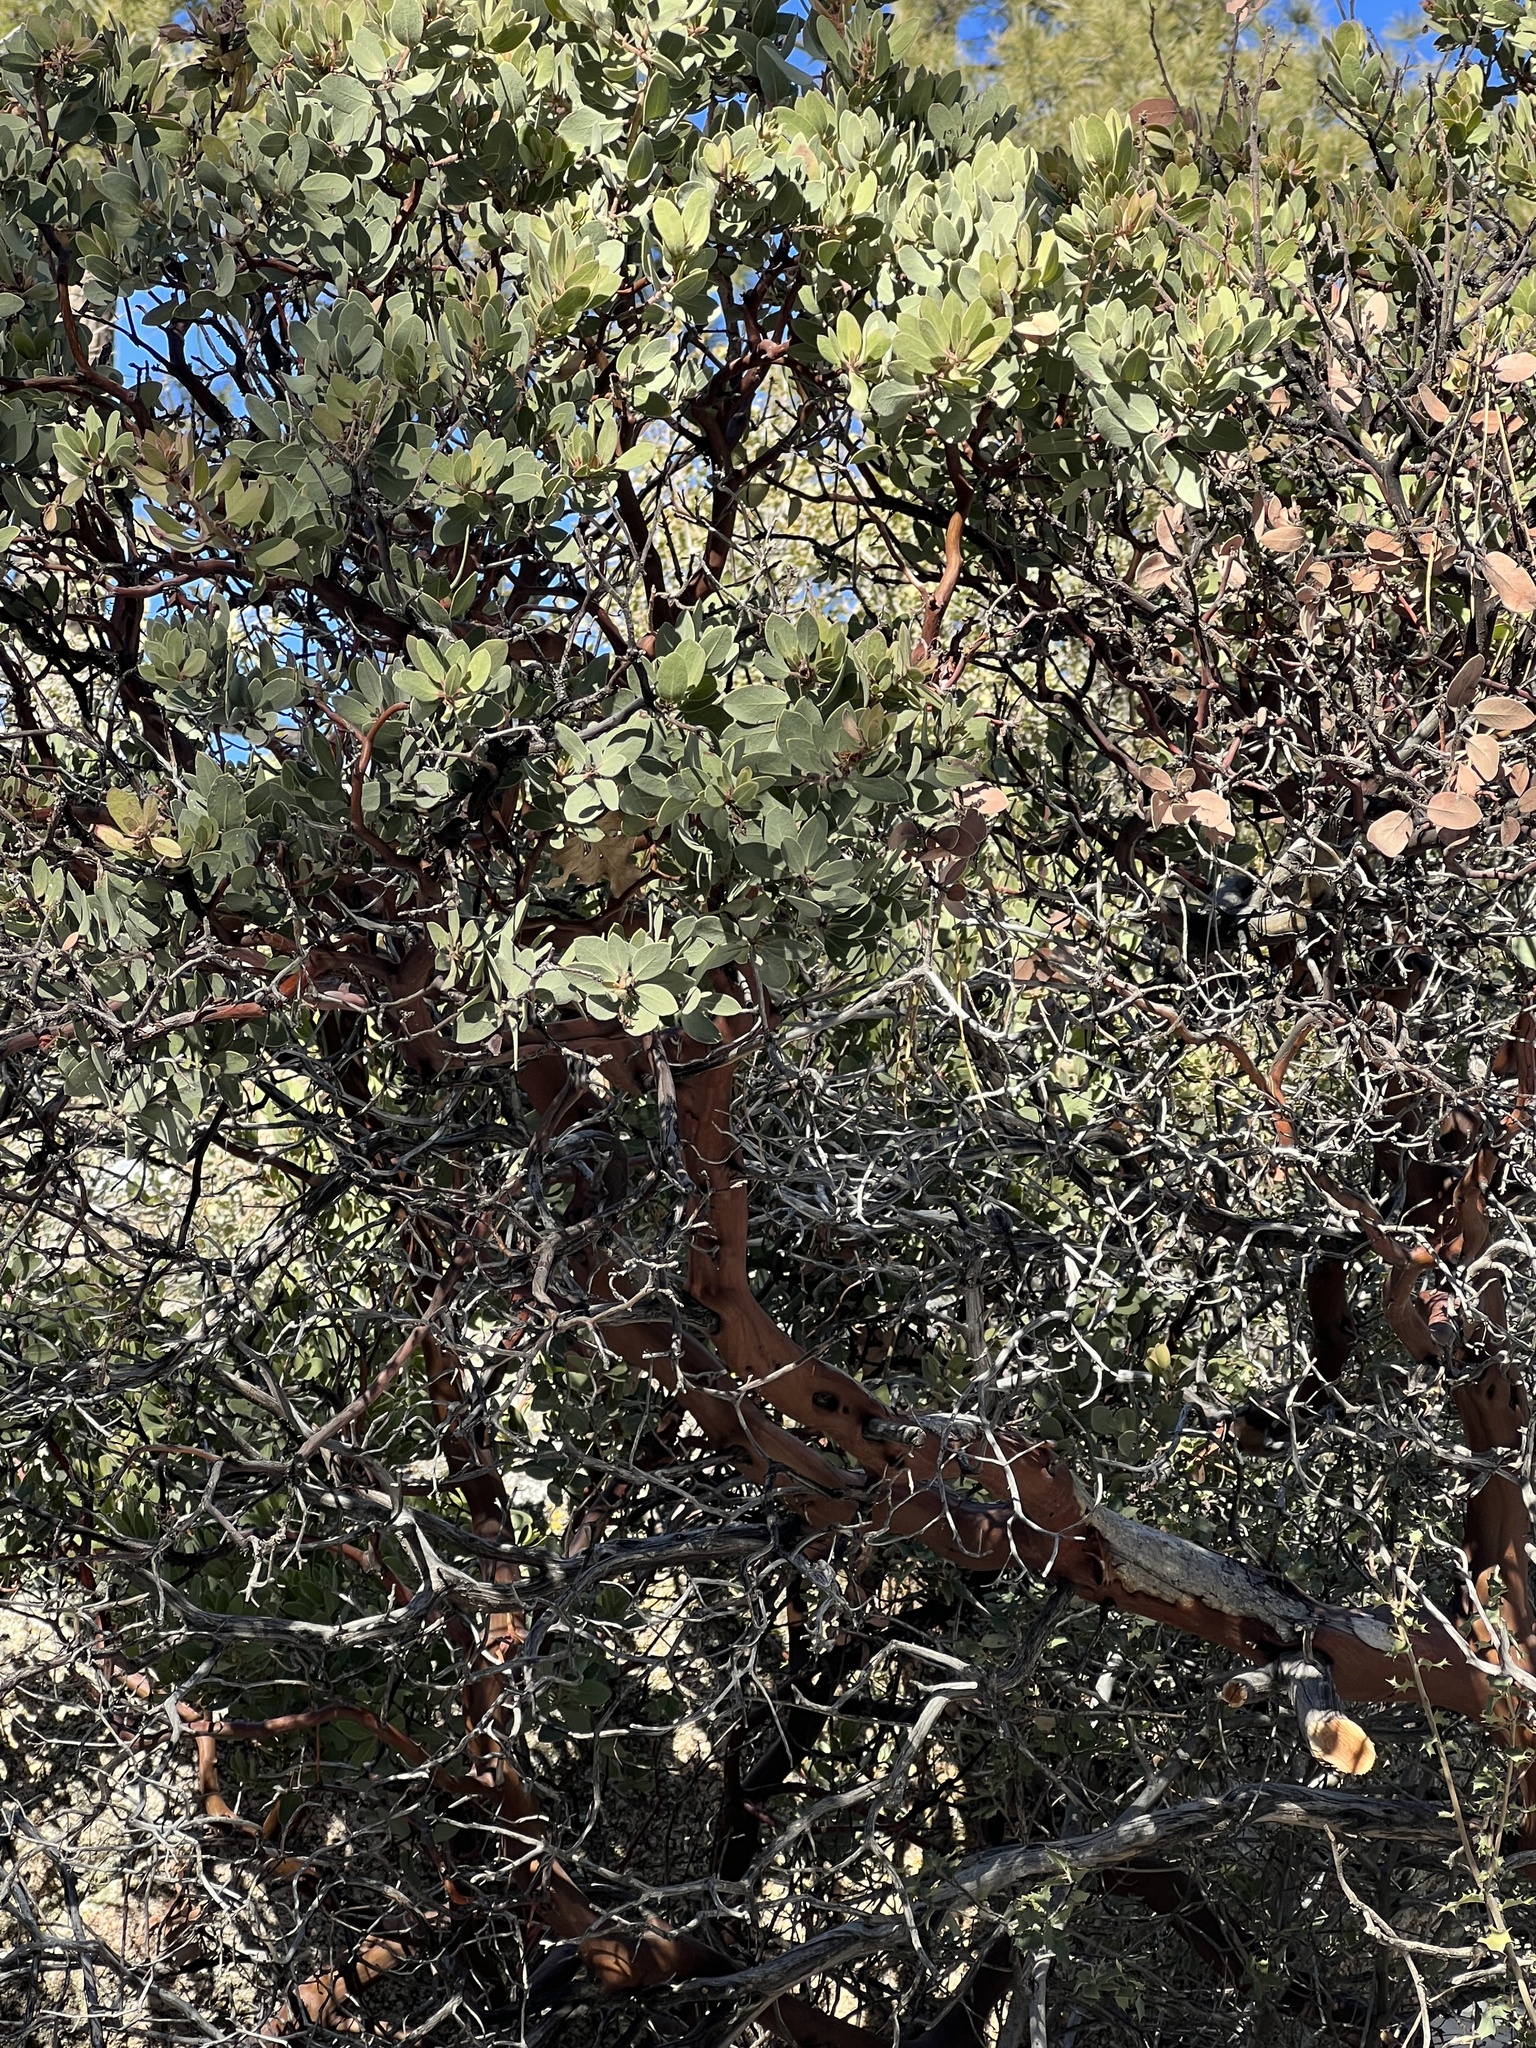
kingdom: Plantae
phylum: Tracheophyta
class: Magnoliopsida
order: Ericales
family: Ericaceae
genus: Arctostaphylos
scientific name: Arctostaphylos pringlei
